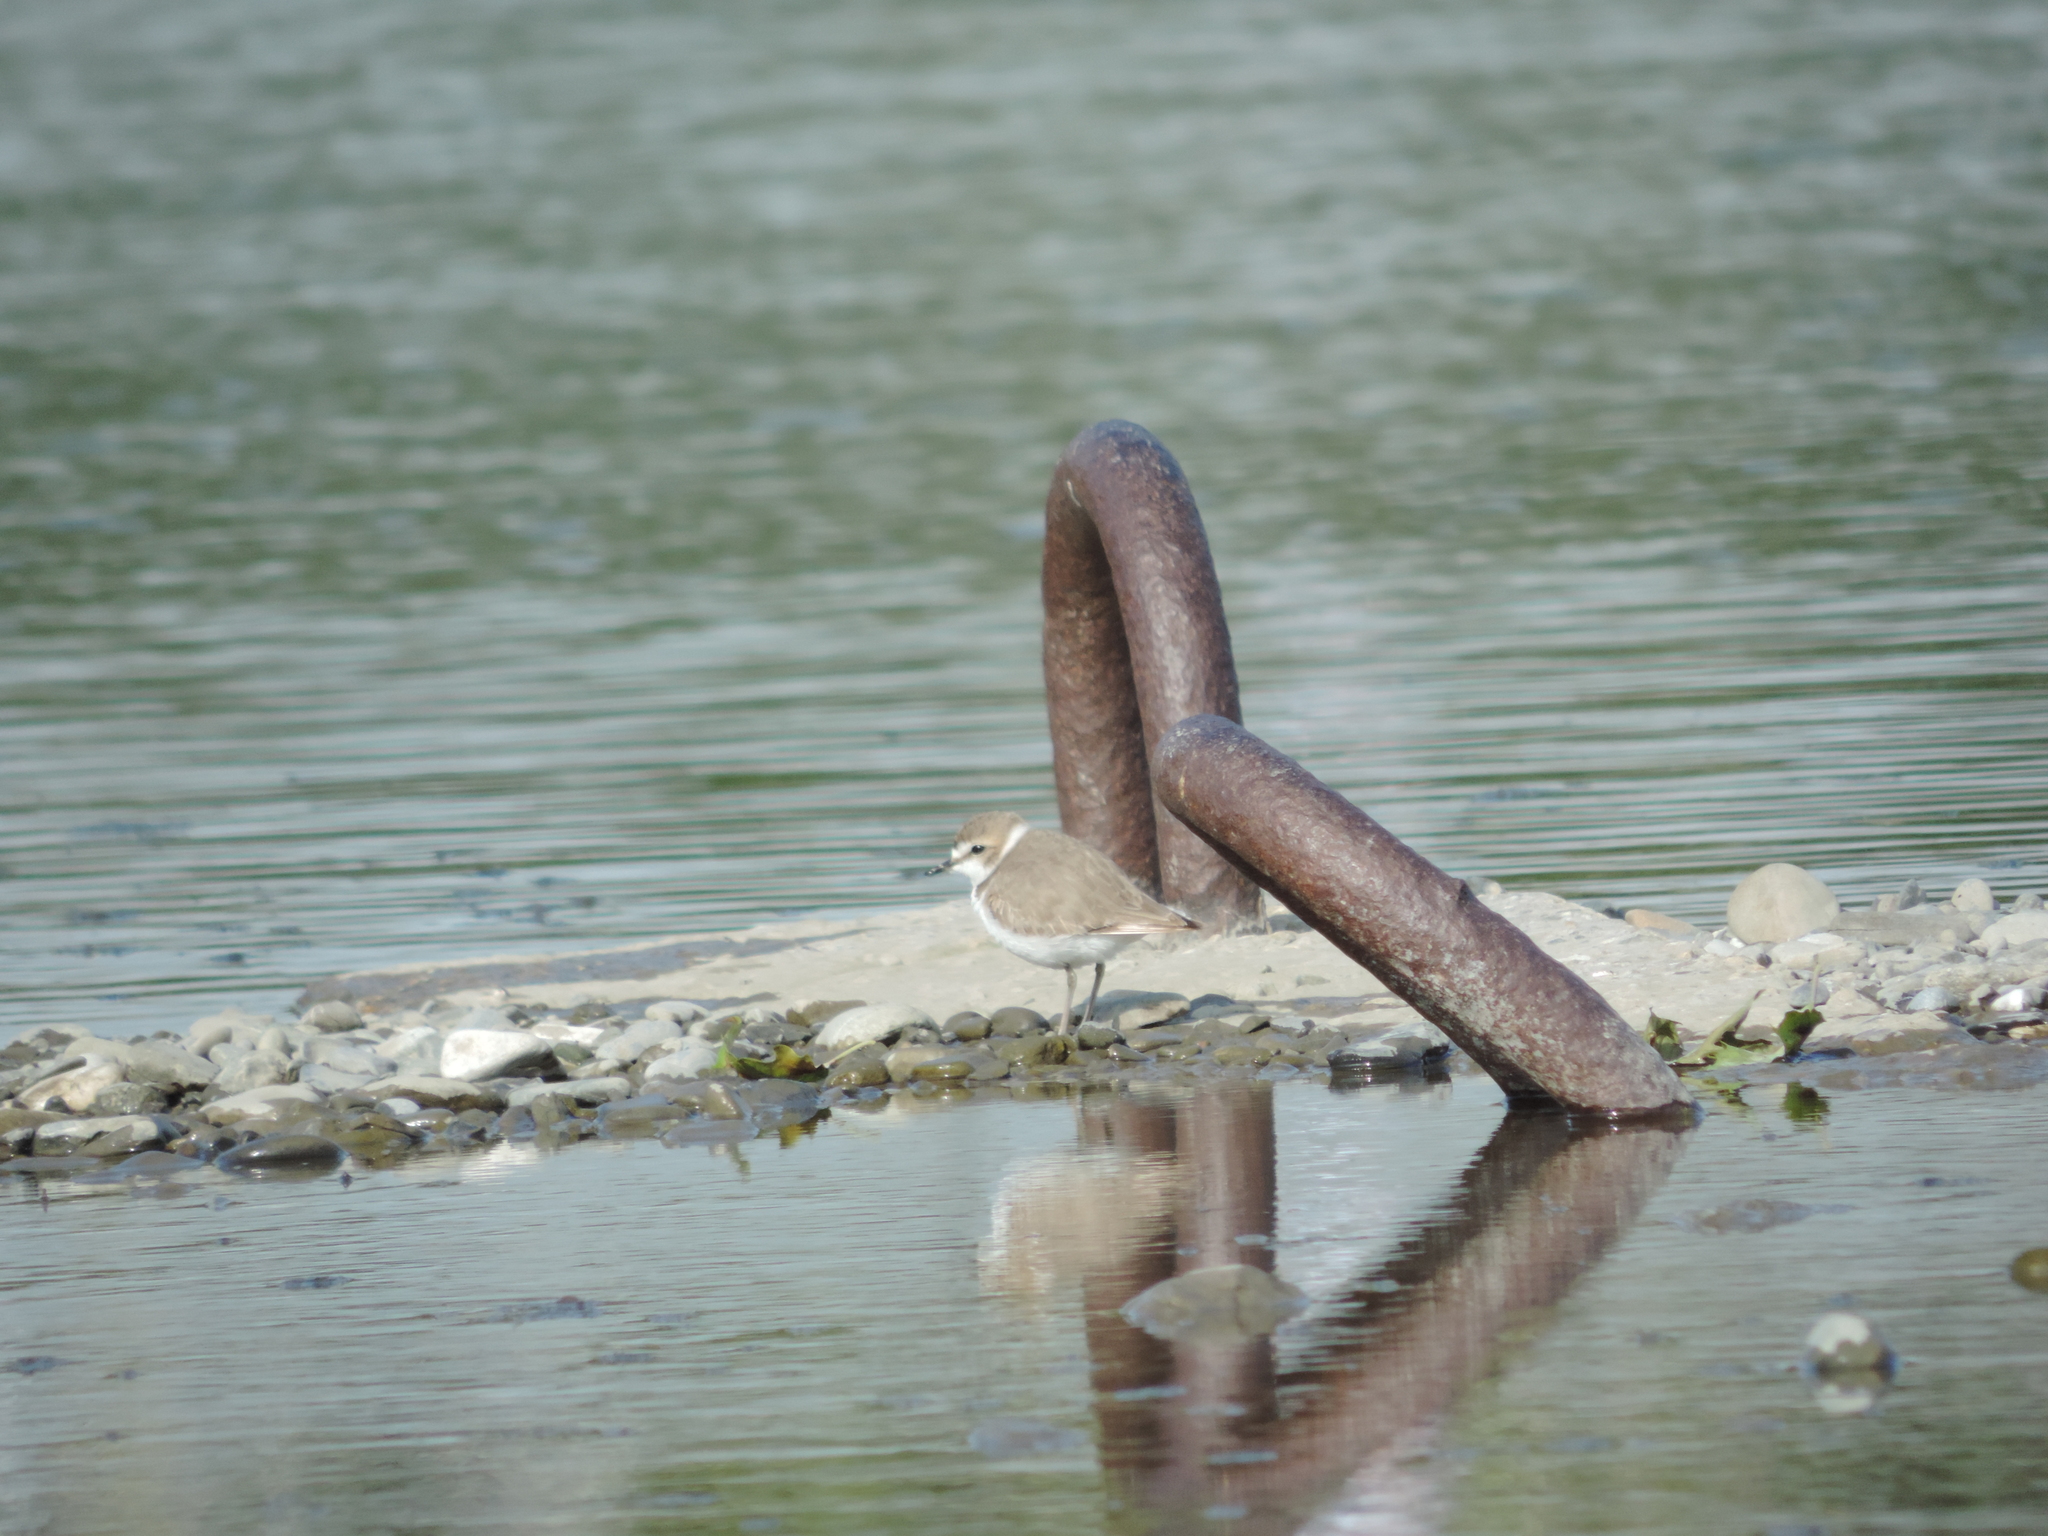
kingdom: Animalia
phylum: Chordata
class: Aves
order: Charadriiformes
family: Charadriidae
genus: Charadrius
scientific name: Charadrius alexandrinus
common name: Kentish plover
